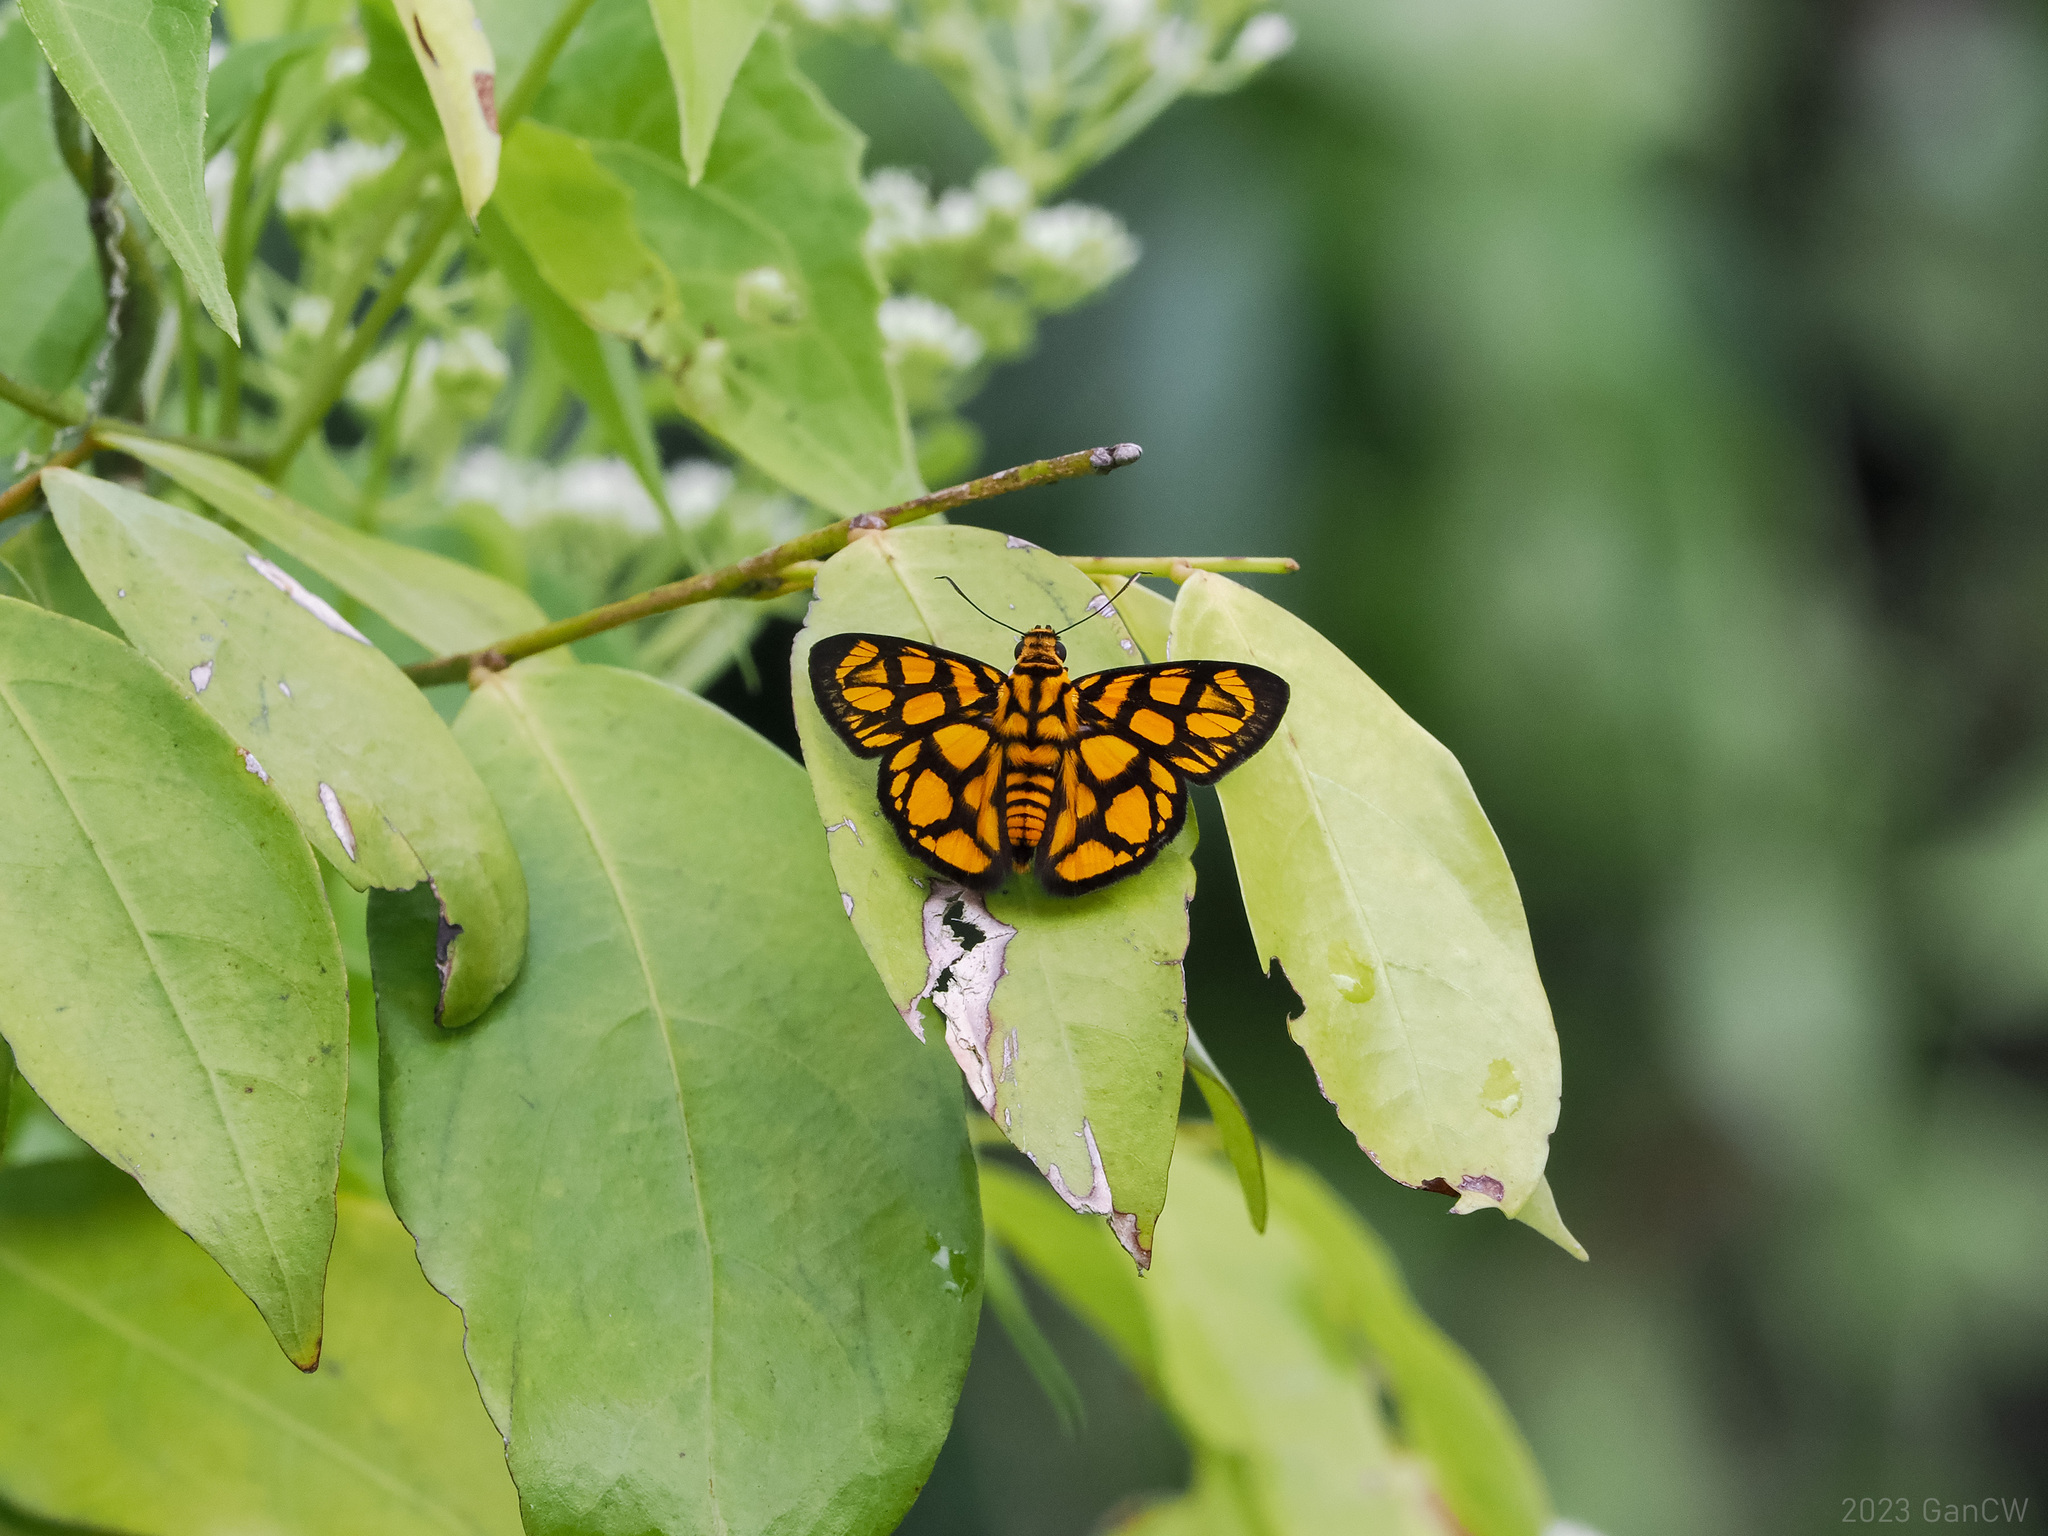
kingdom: Animalia
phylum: Arthropoda
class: Insecta
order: Lepidoptera
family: Hesperiidae
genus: Odina
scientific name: Odina hieroglyphica
